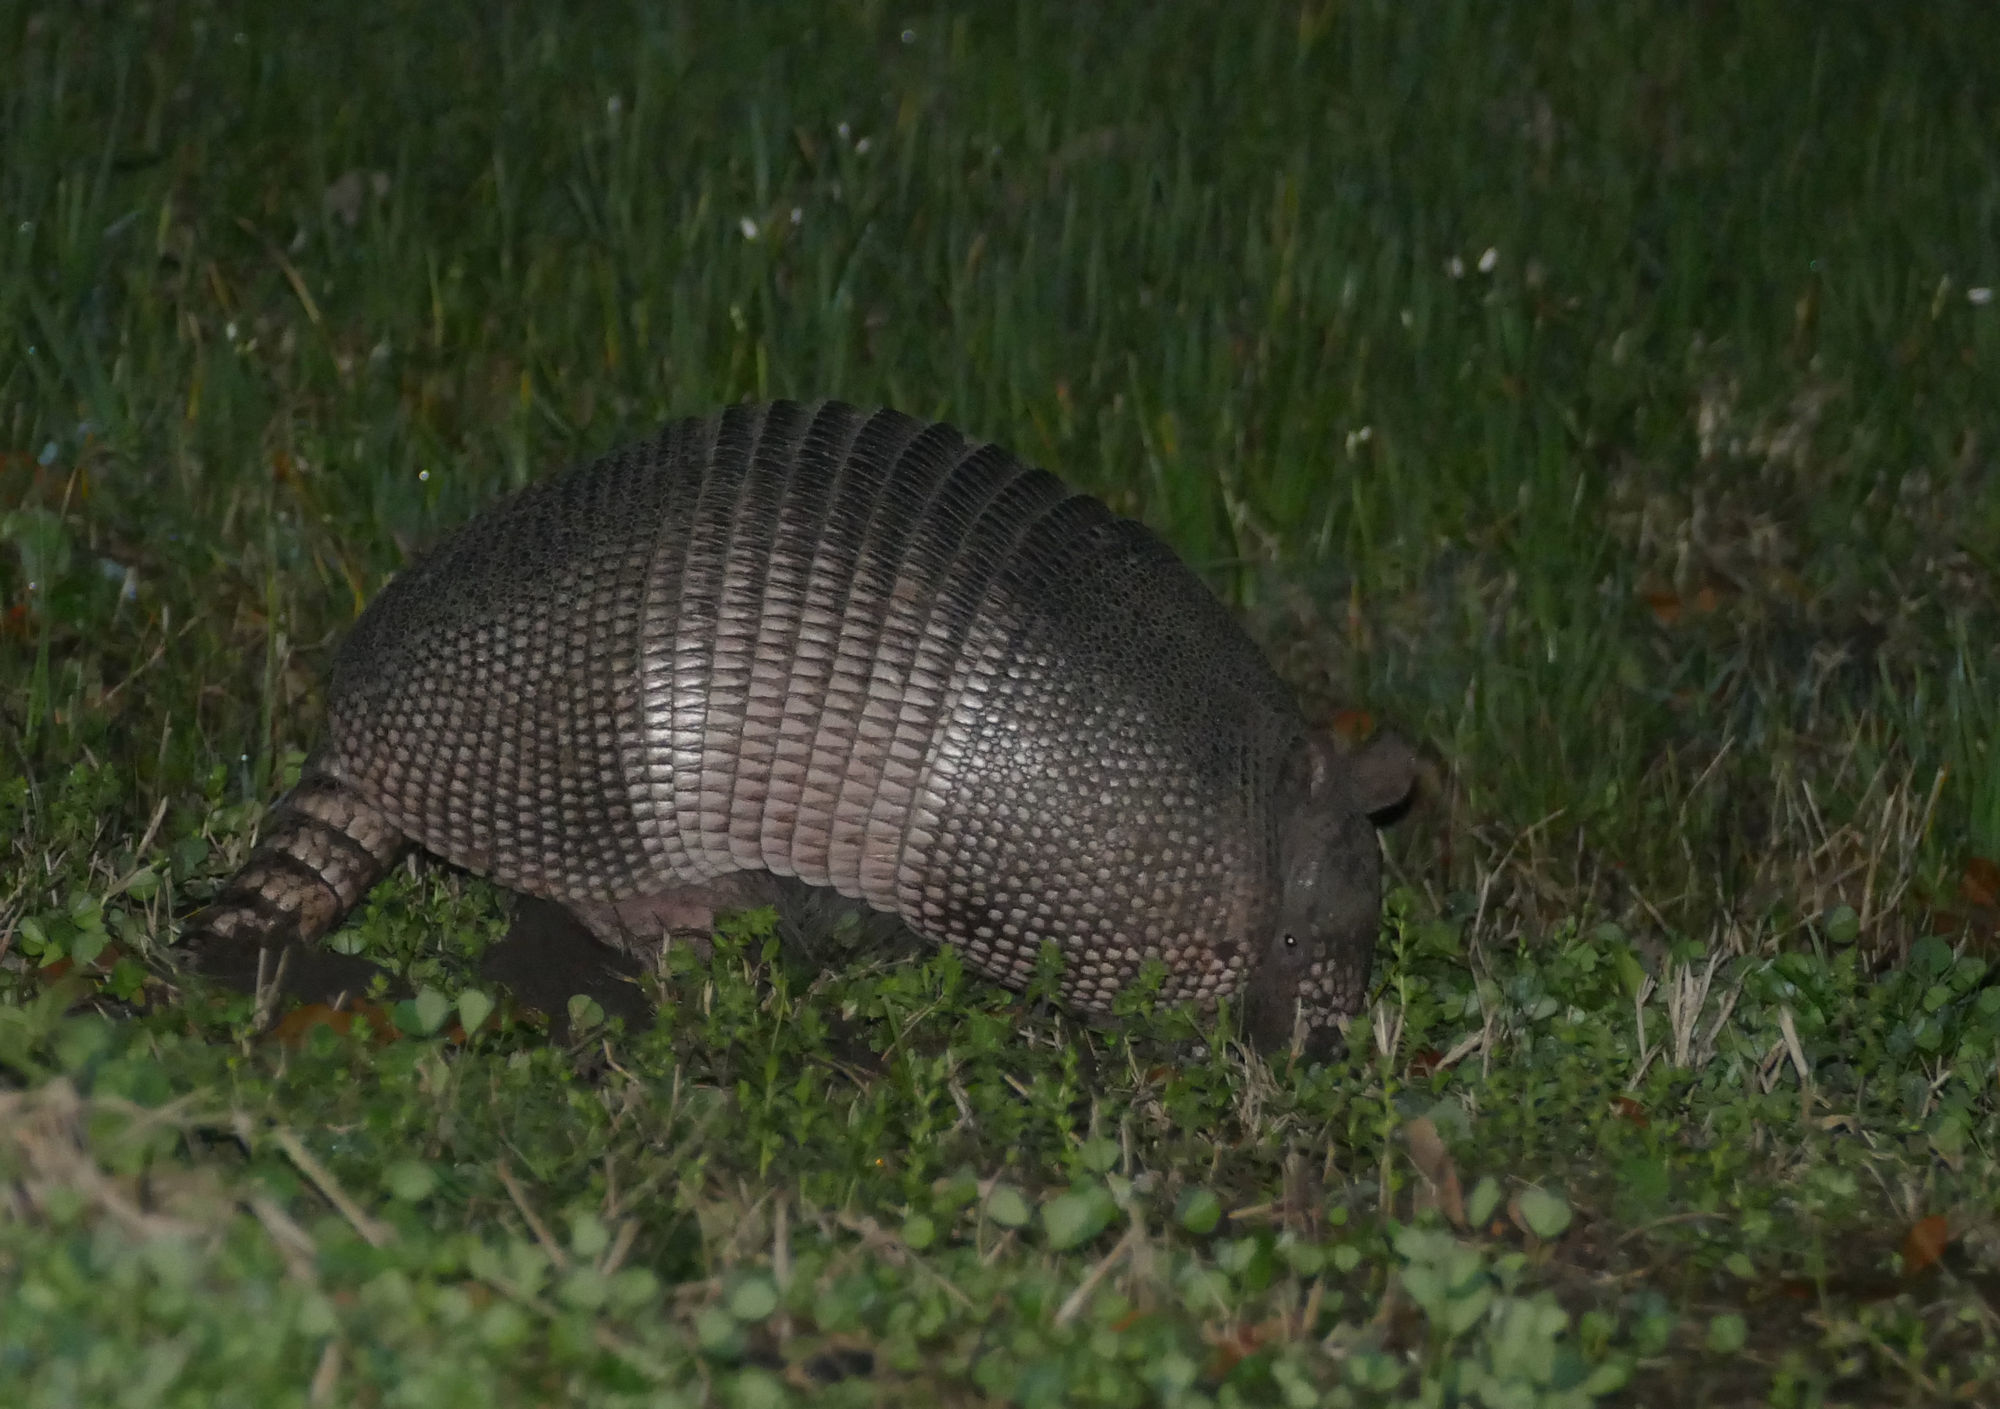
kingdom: Animalia
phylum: Chordata
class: Mammalia
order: Cingulata
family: Dasypodidae
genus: Dasypus
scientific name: Dasypus novemcinctus
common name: Nine-banded armadillo
